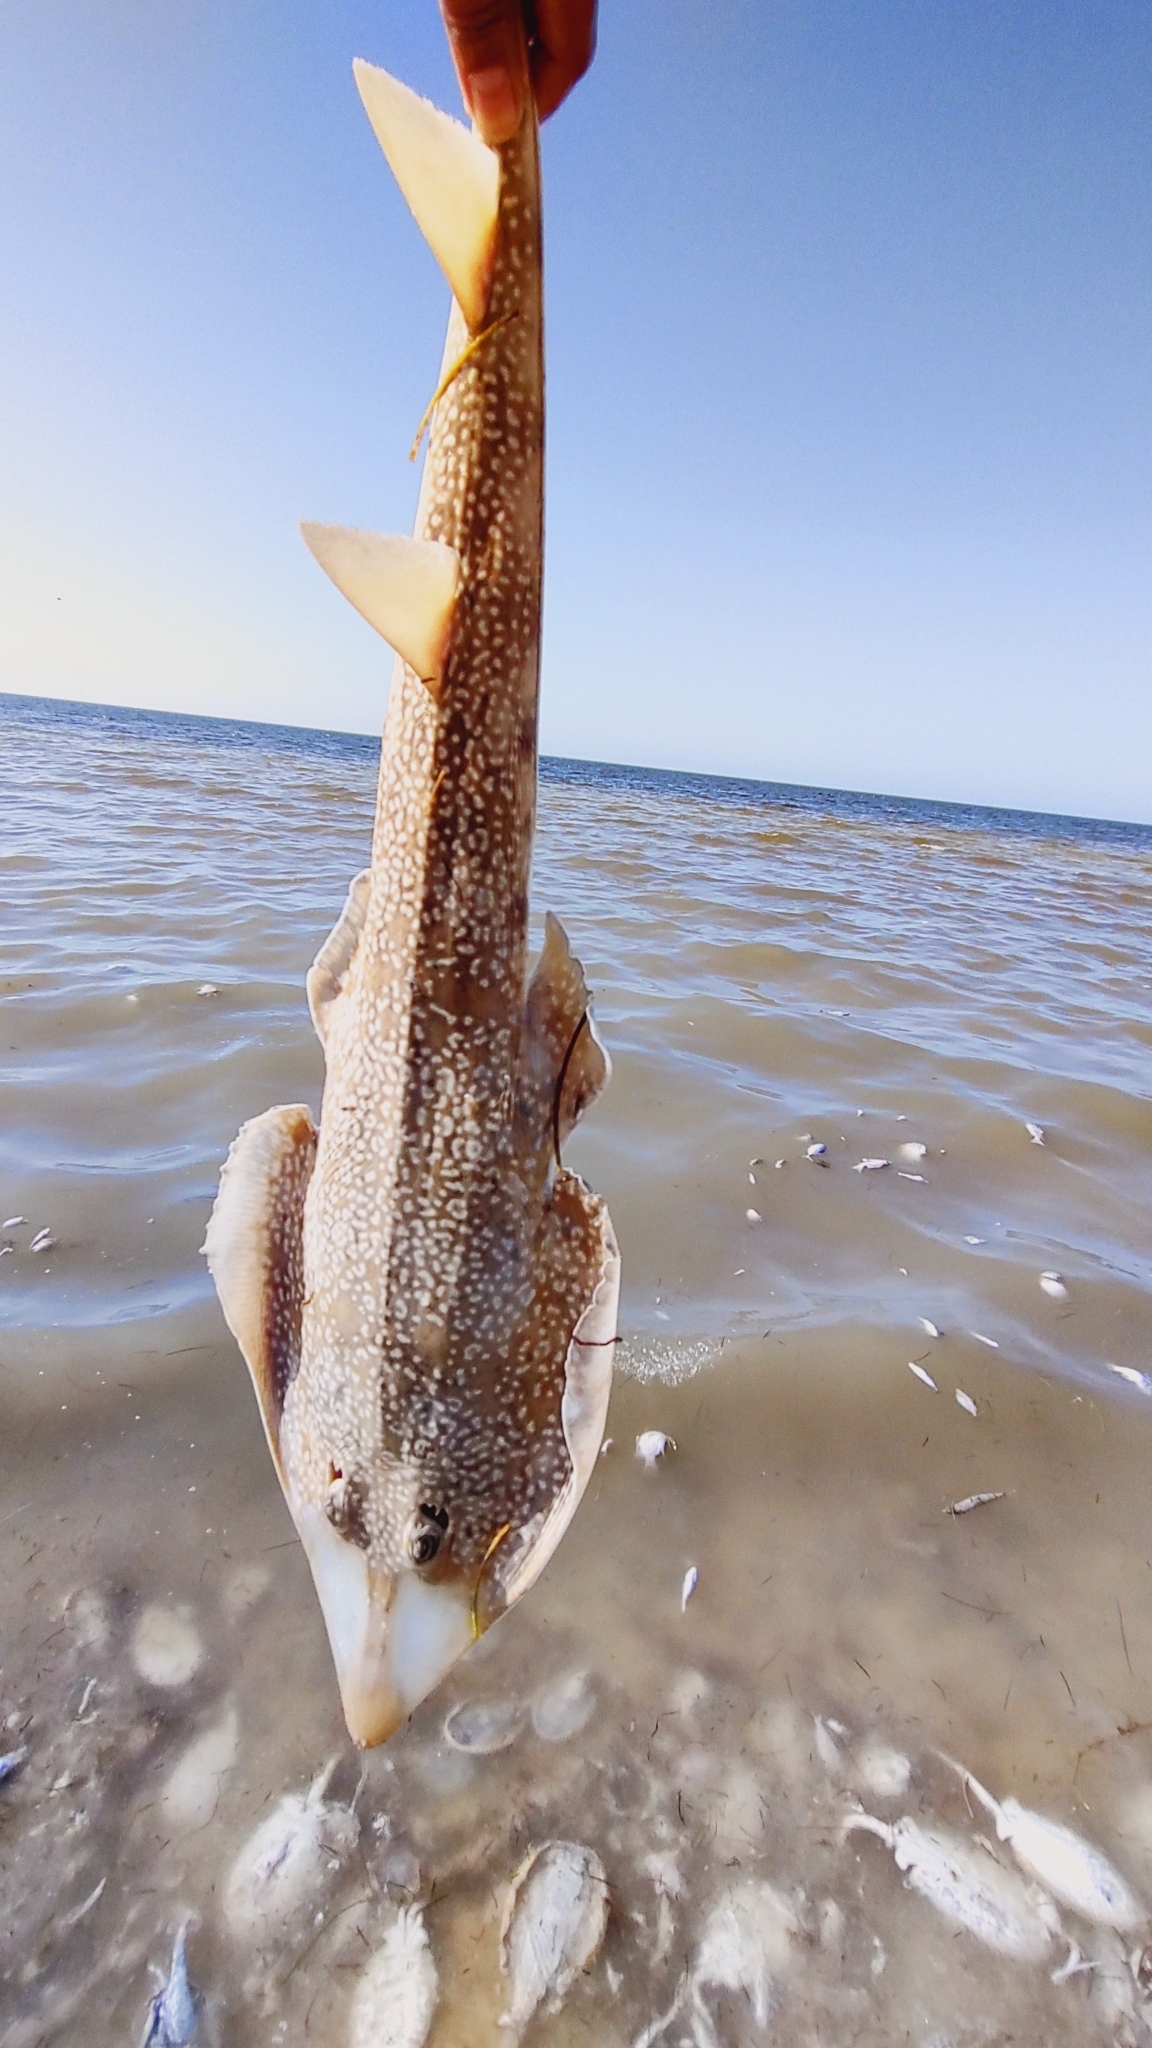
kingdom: Animalia
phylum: Chordata
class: Elasmobranchii
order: Rhinopristiformes
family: Rhinobatidae
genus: Pseudobatos
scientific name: Pseudobatos lentiginosus
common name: Atlantic guitarfish
